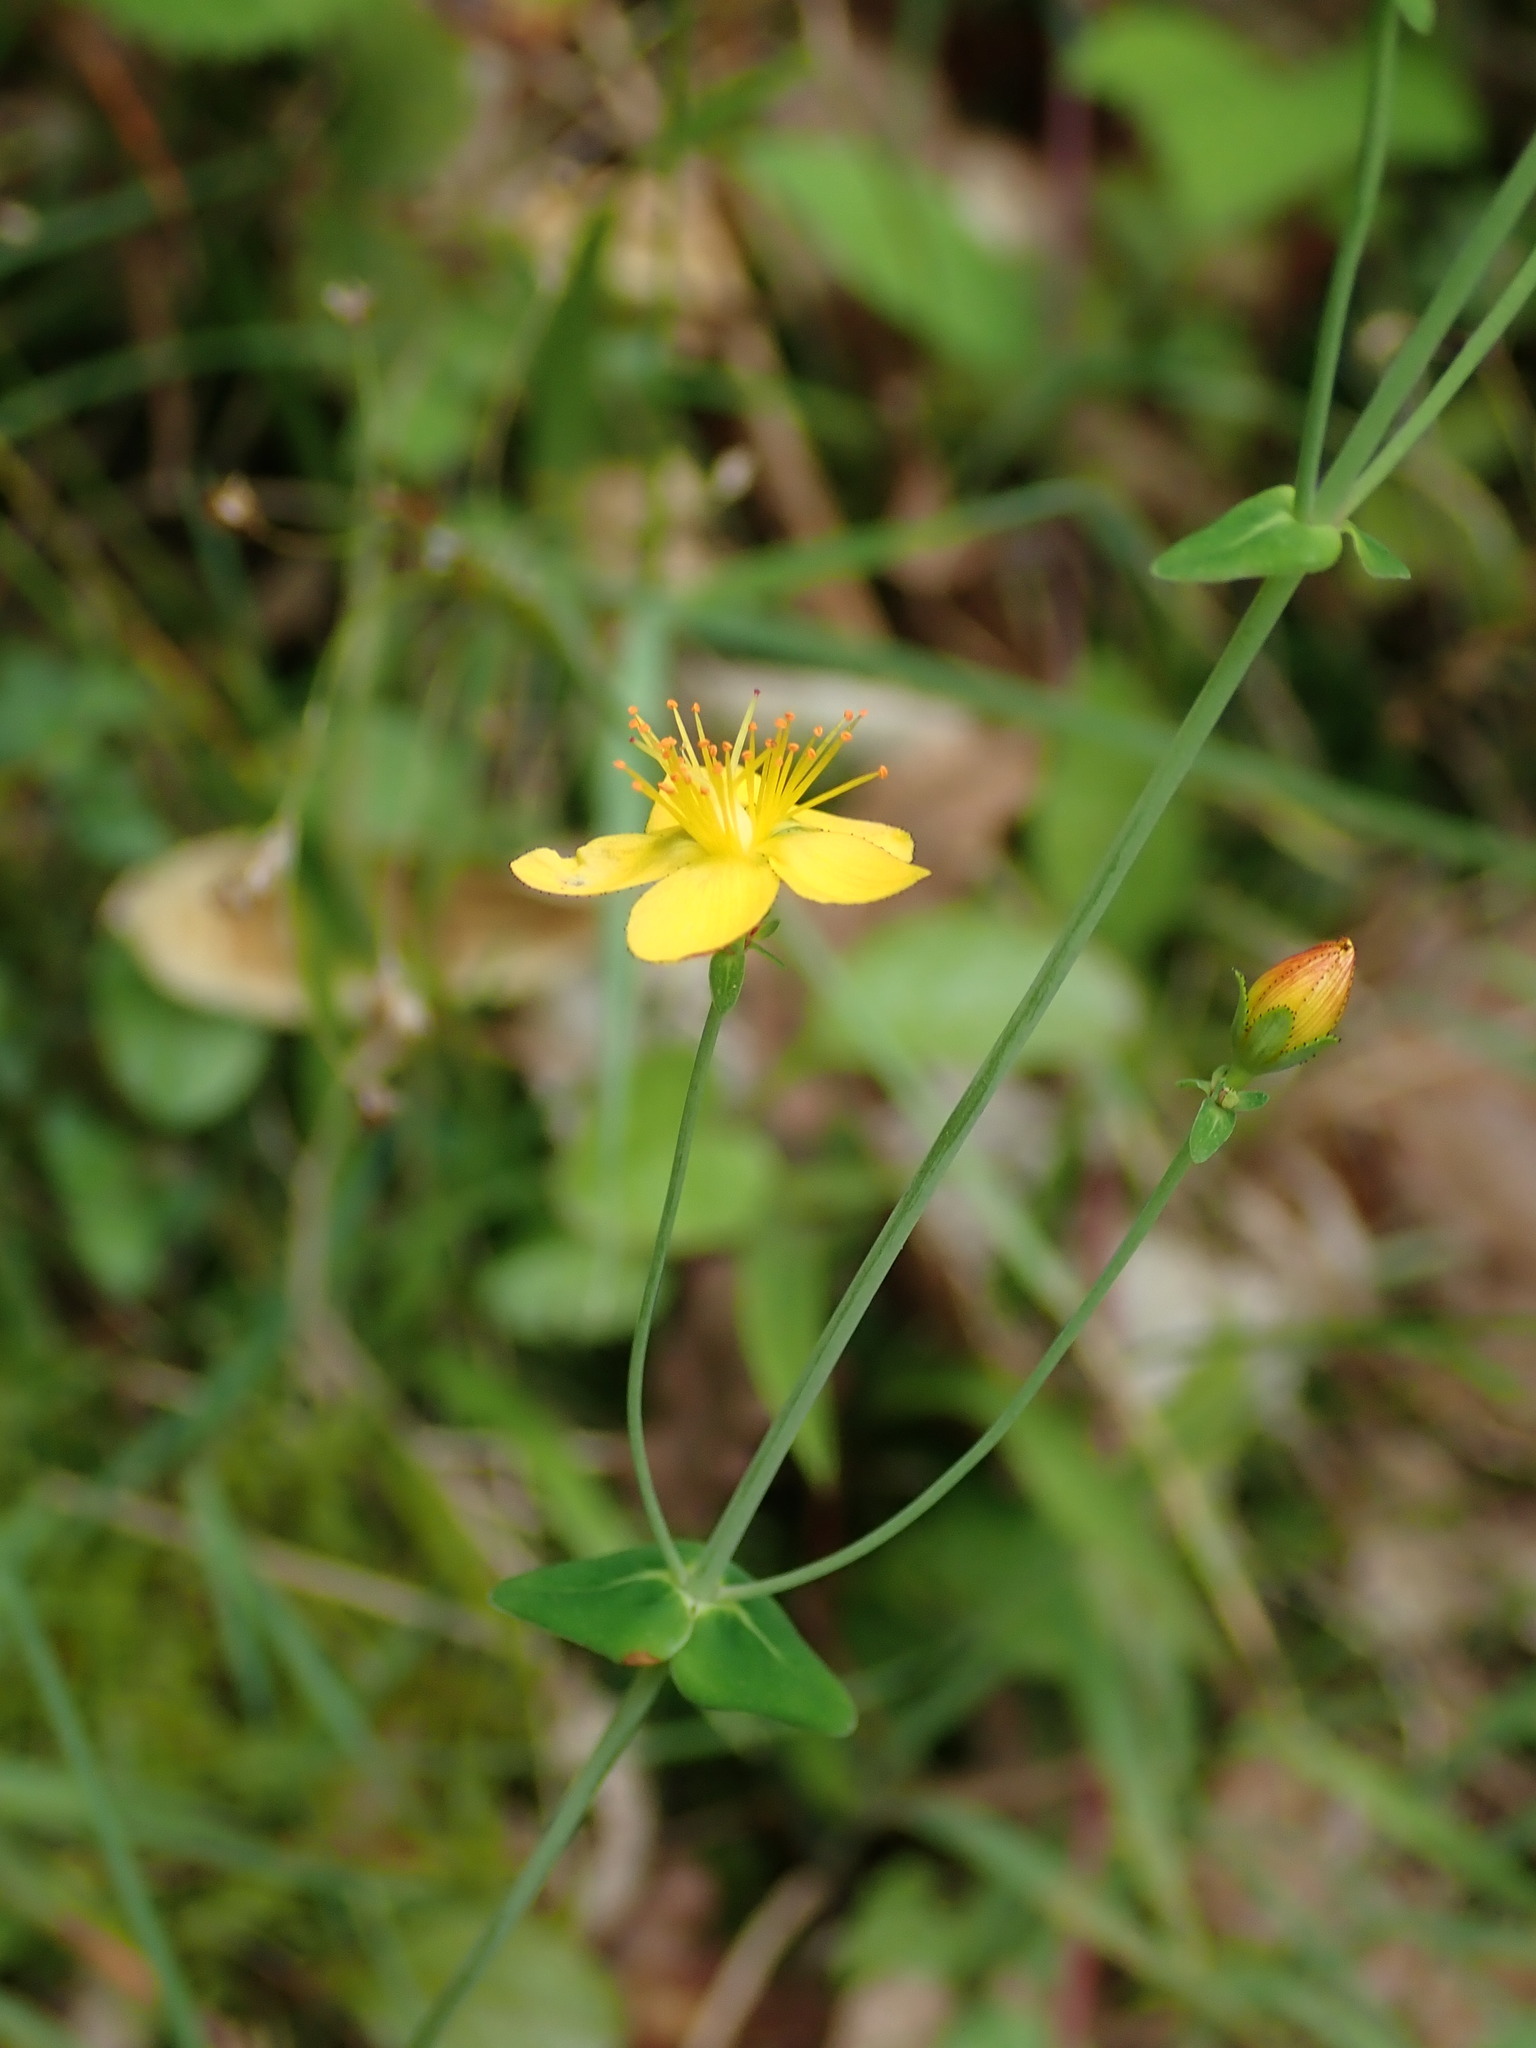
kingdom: Plantae
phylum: Tracheophyta
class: Magnoliopsida
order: Malpighiales
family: Hypericaceae
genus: Hypericum
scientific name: Hypericum pulchrum
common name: Slender st. john's-wort
